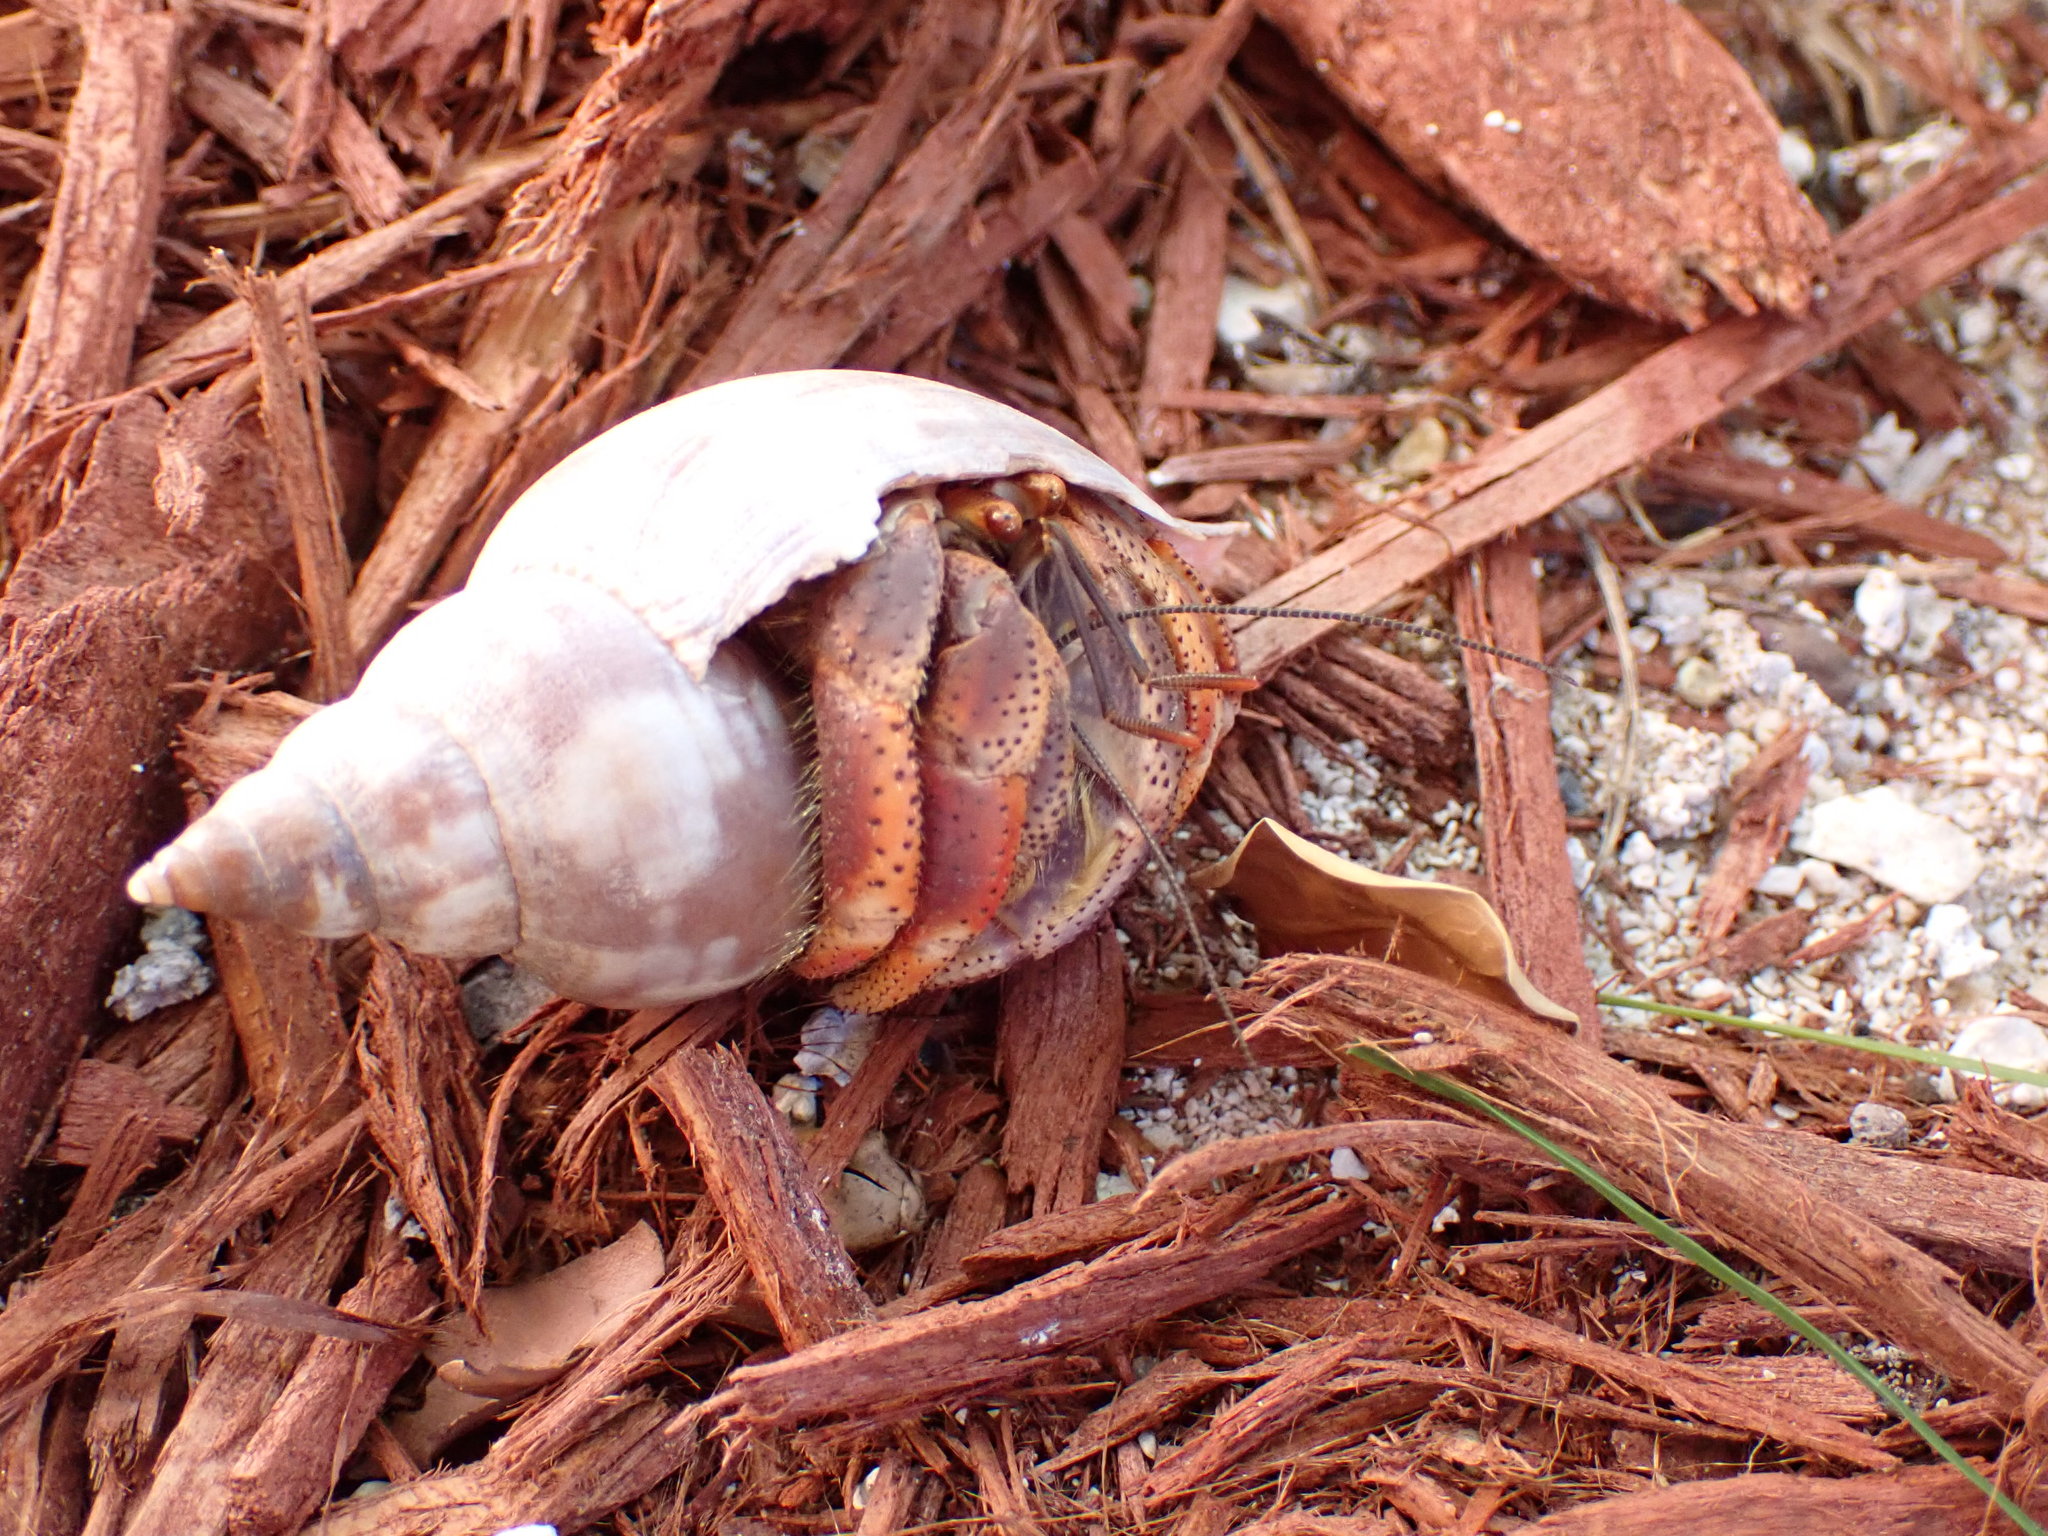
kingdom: Animalia
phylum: Mollusca
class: Gastropoda
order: Neogastropoda
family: Fasciolariidae
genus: Fasciolaria
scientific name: Fasciolaria tulipa
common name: True tulip
